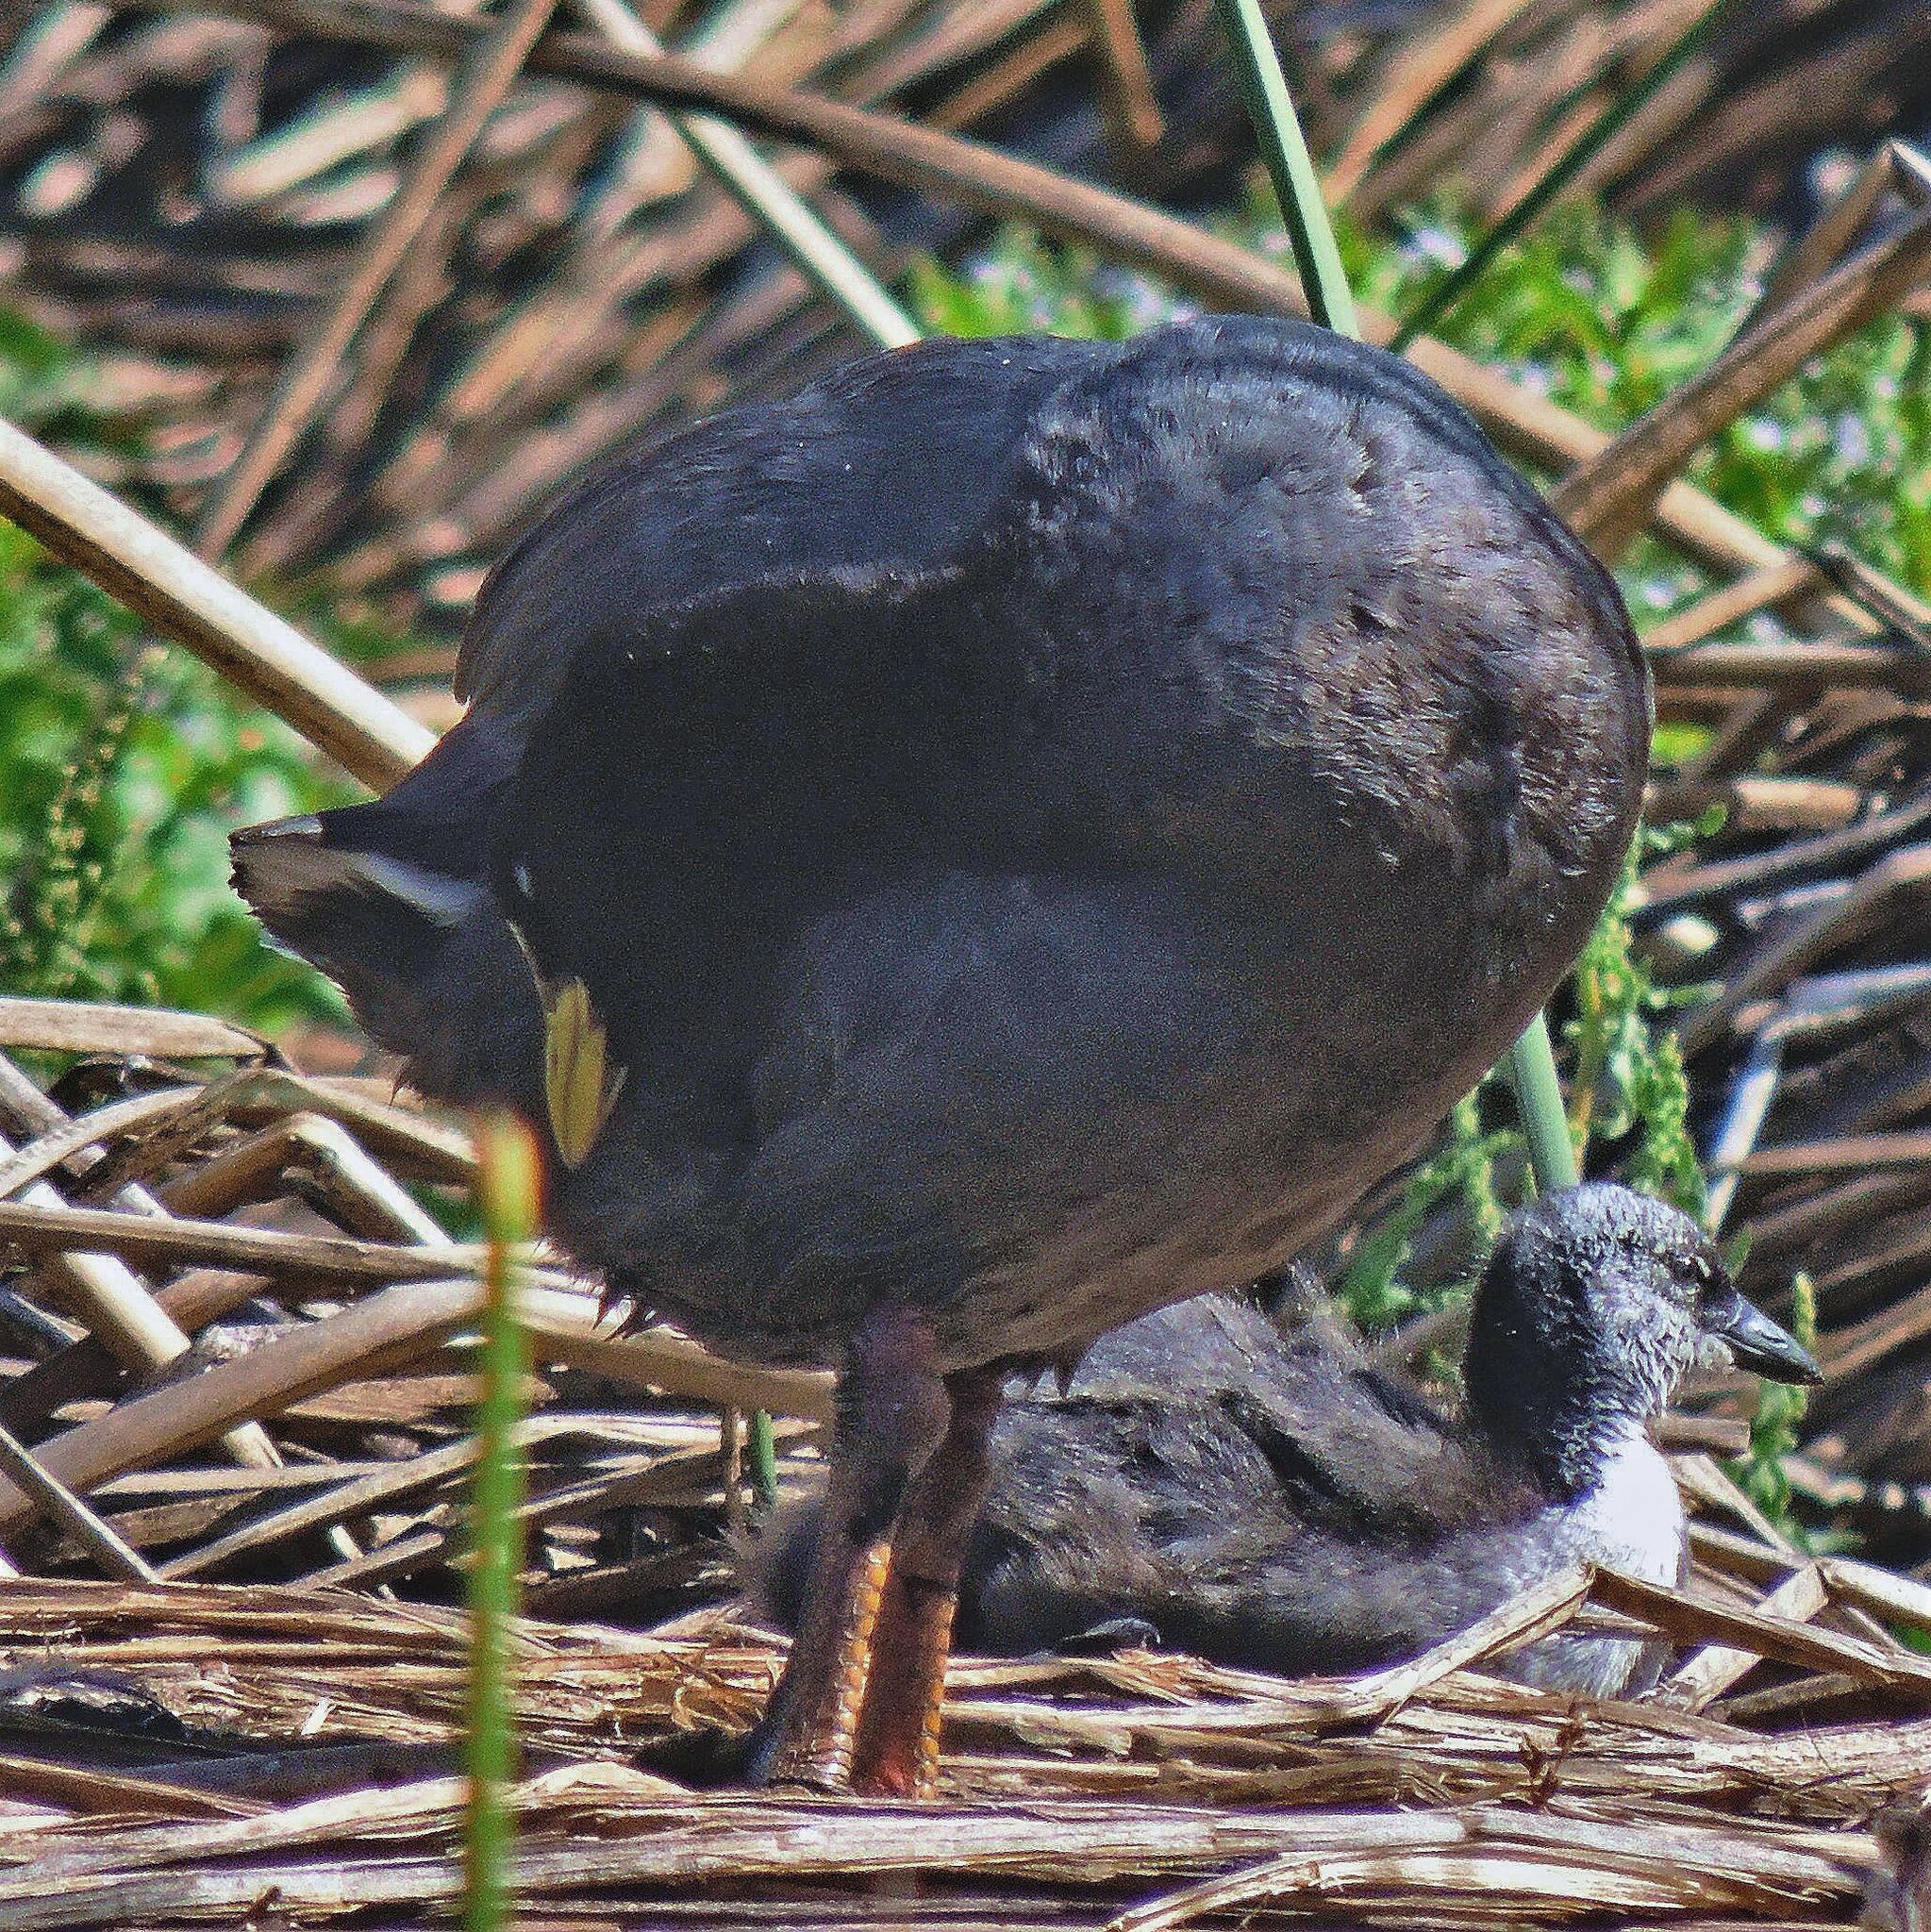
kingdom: Animalia
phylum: Chordata
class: Aves
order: Gruiformes
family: Rallidae
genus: Fulica
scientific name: Fulica armillata
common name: Red-gartered coot
